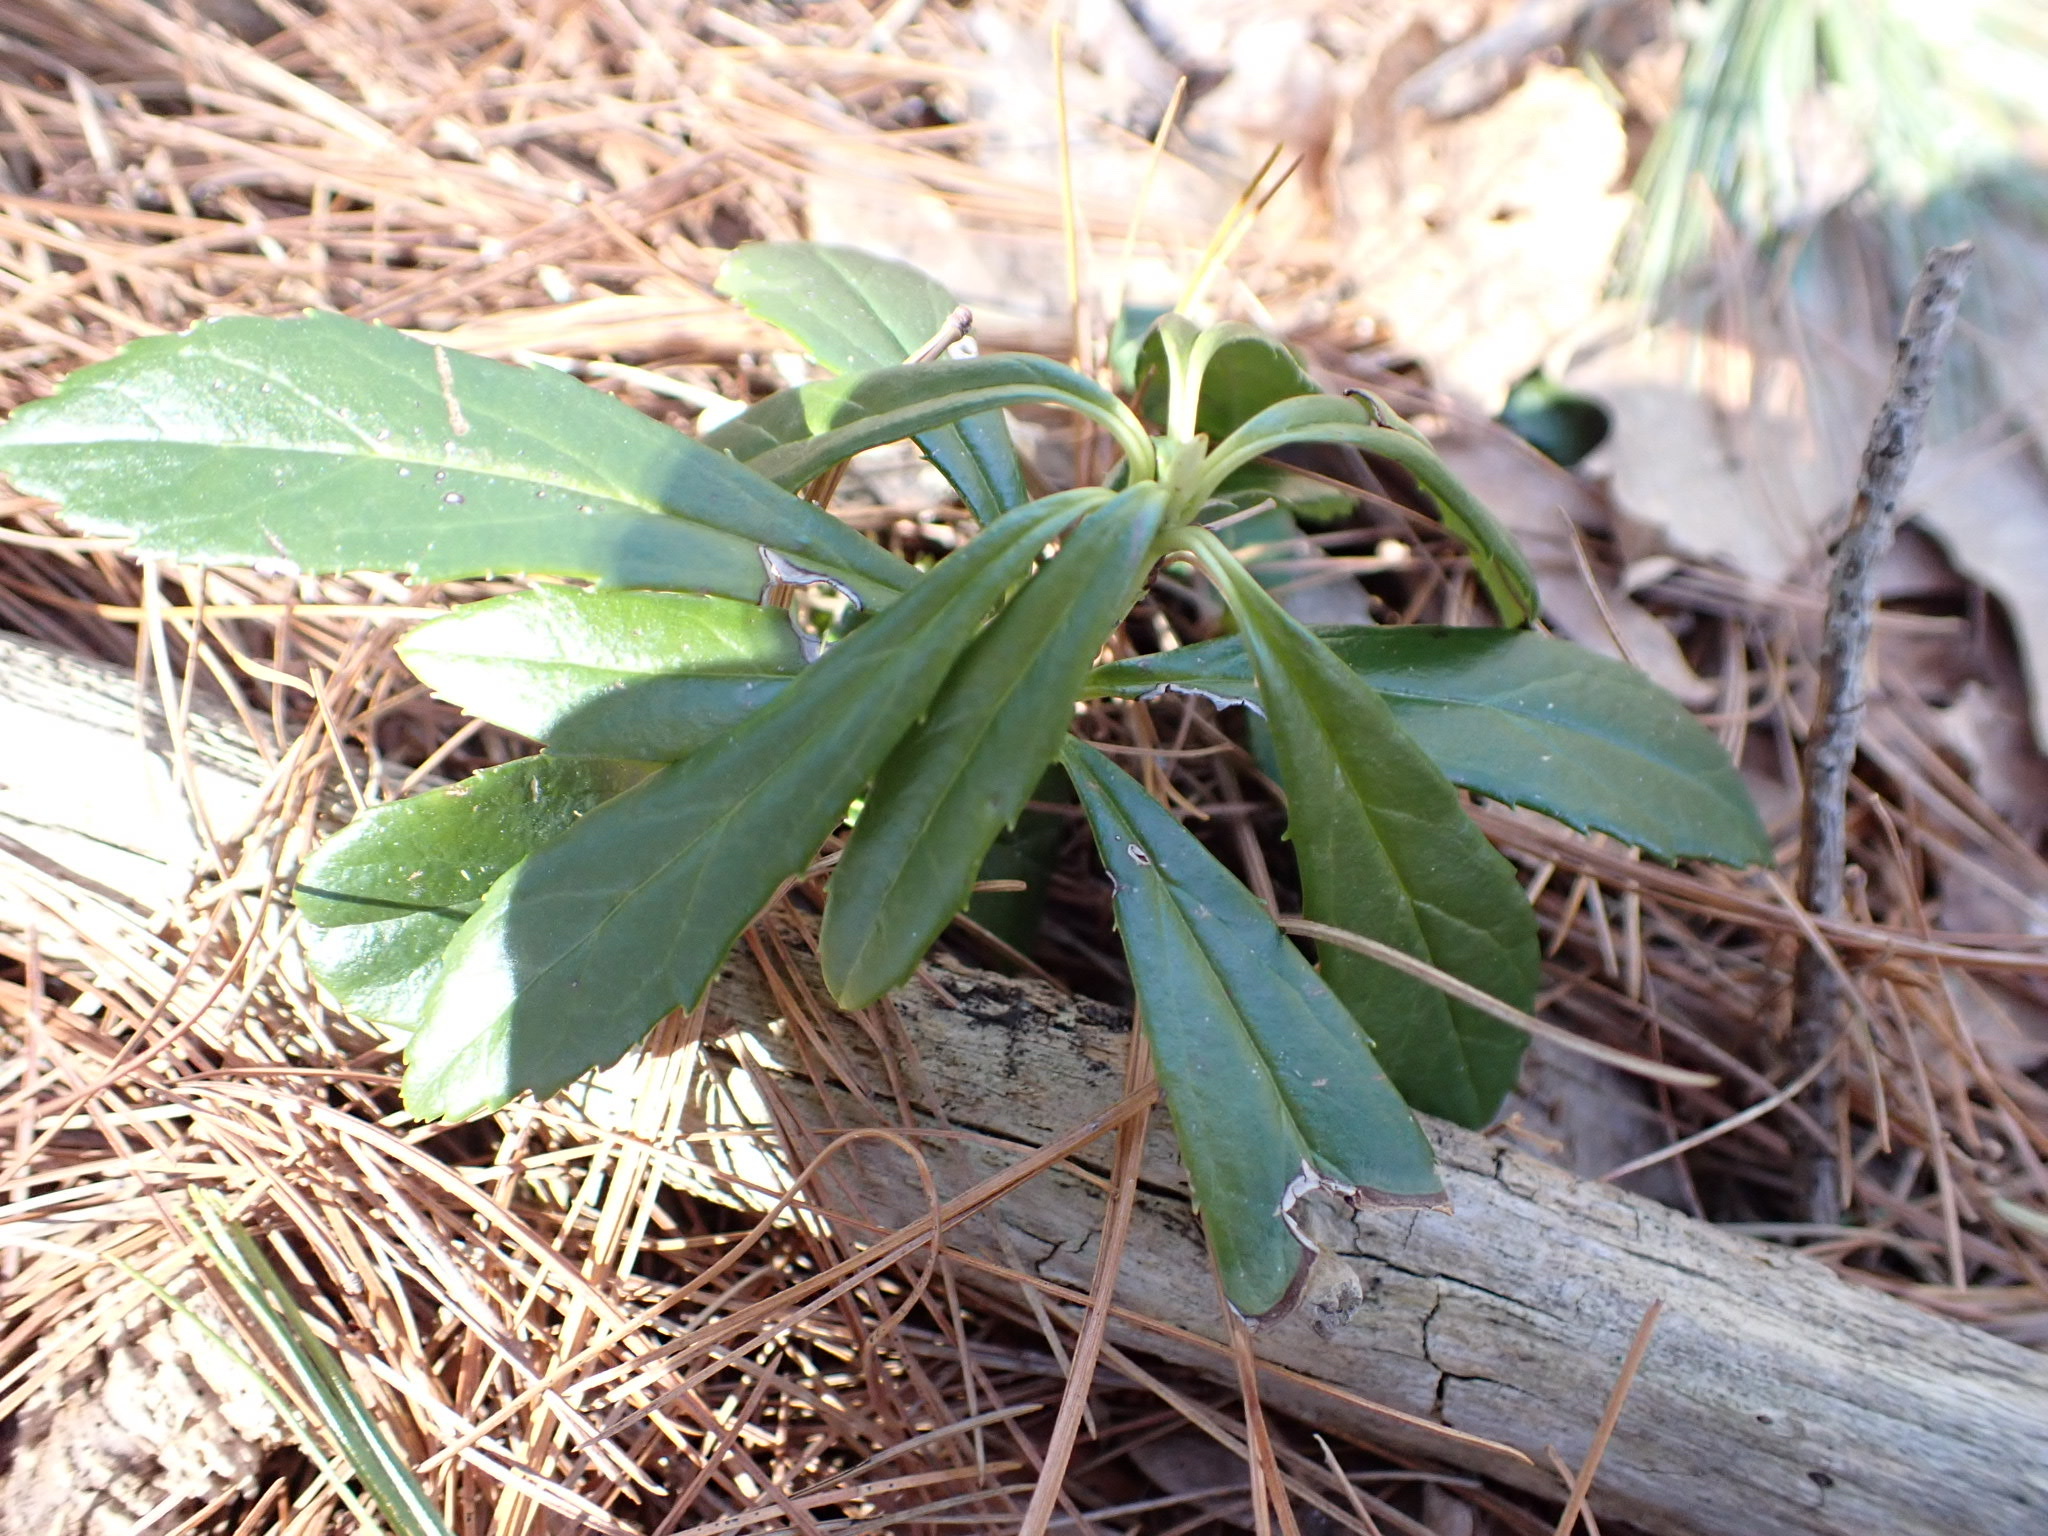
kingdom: Plantae
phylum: Tracheophyta
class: Magnoliopsida
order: Ericales
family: Ericaceae
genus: Chimaphila
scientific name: Chimaphila umbellata
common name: Pipsissewa
